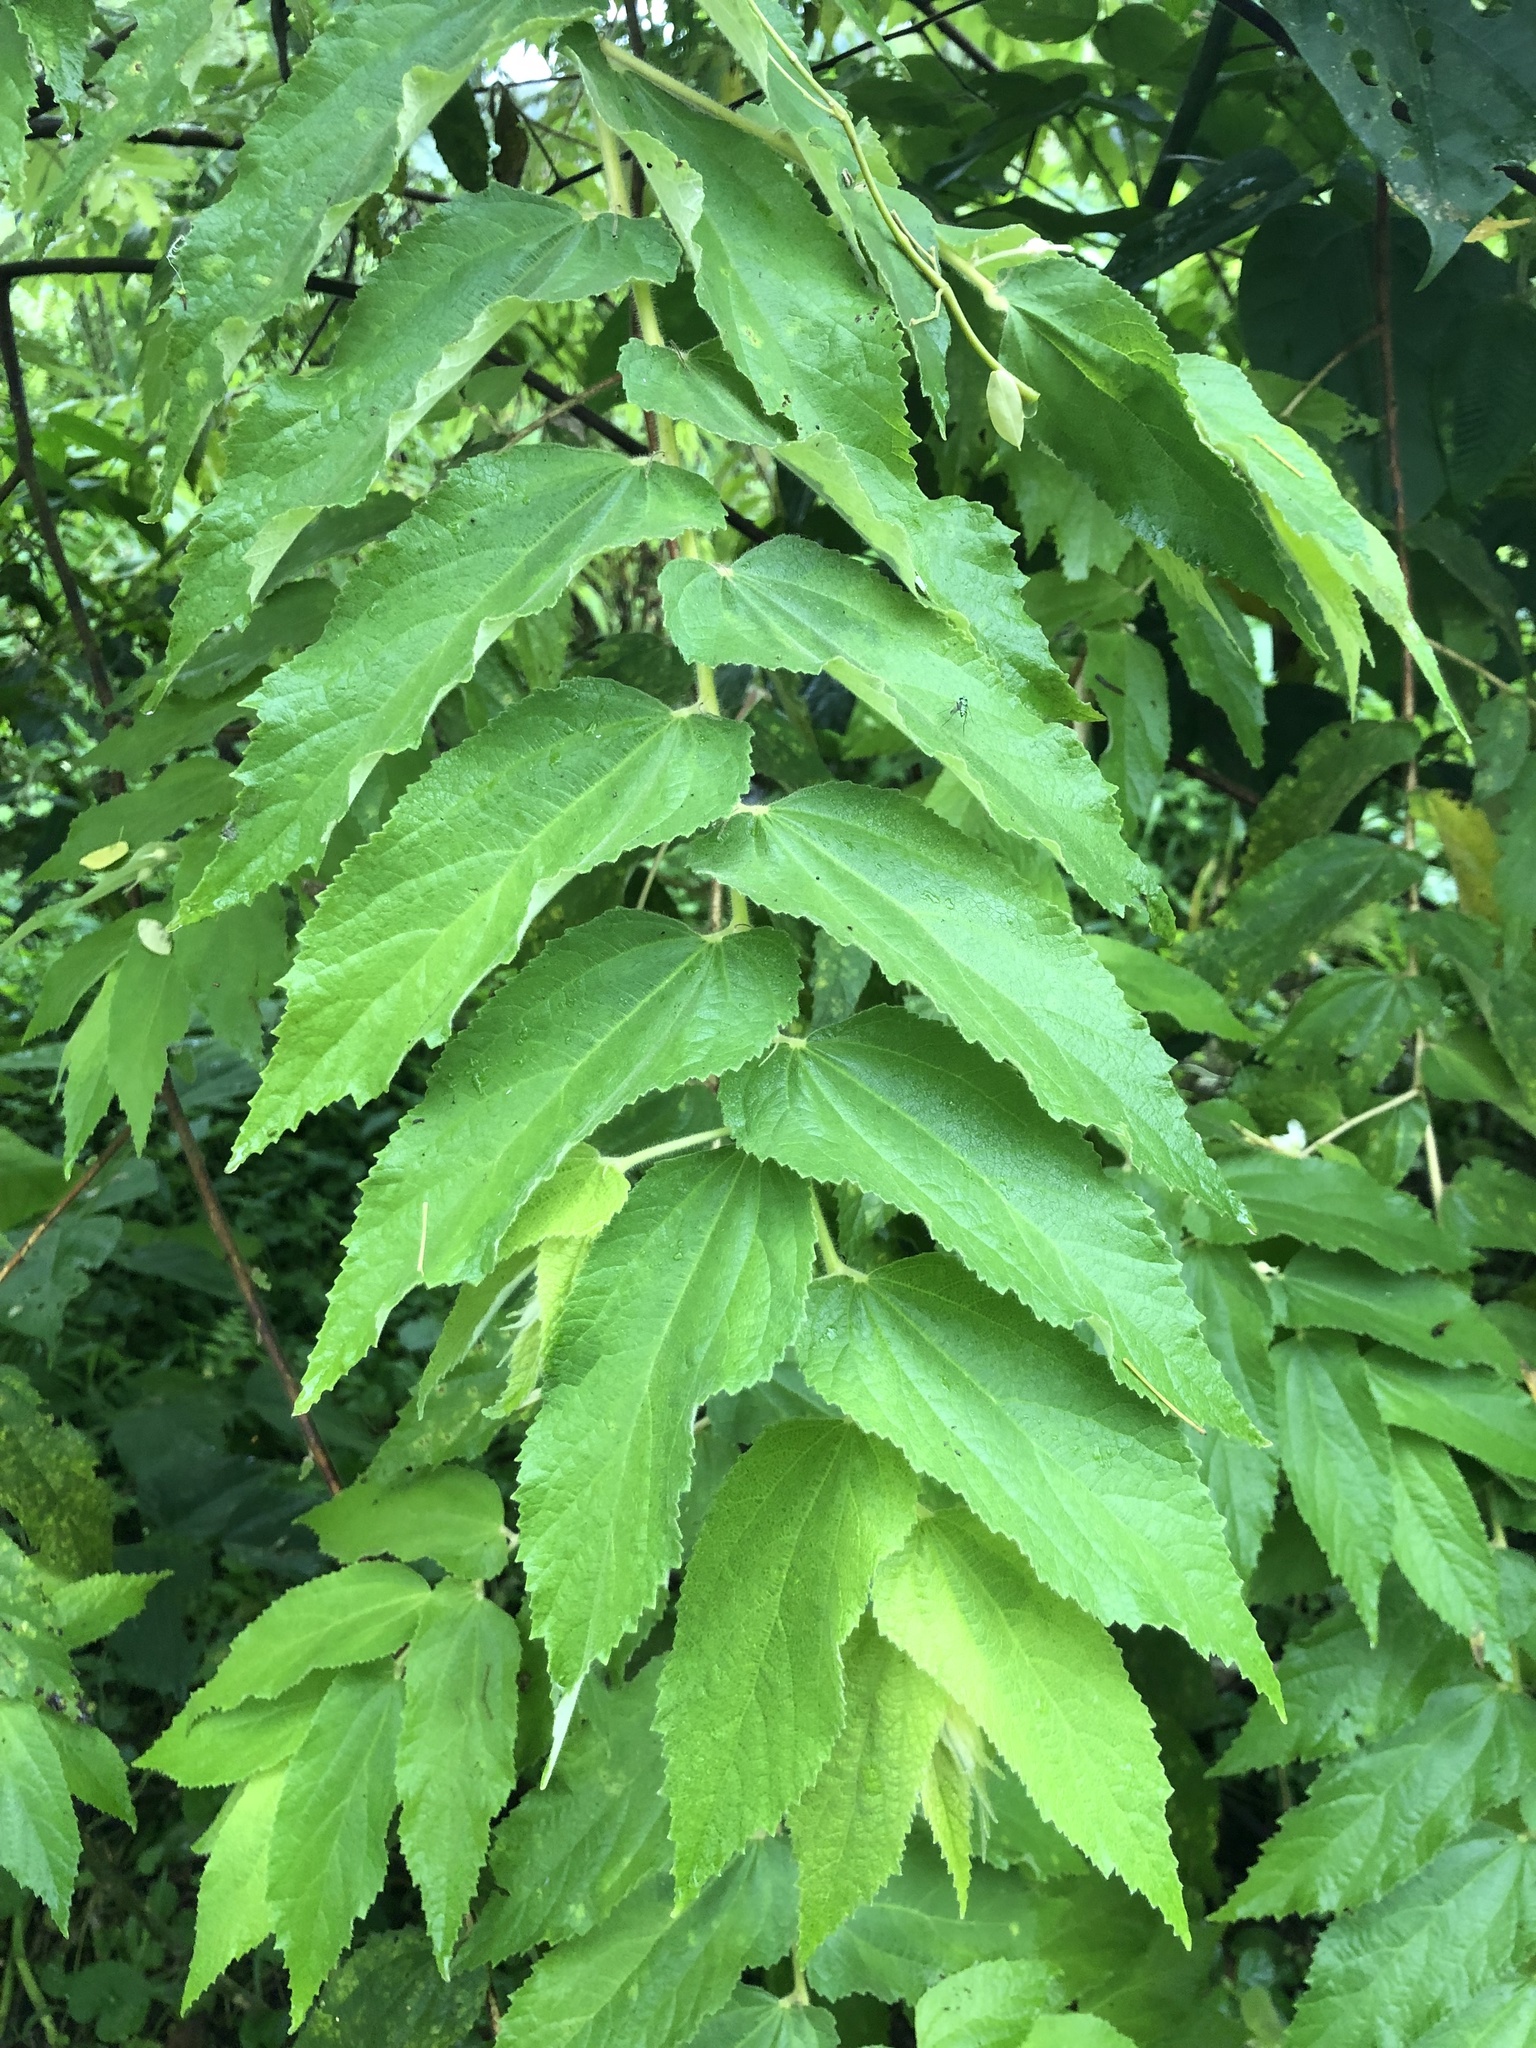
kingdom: Plantae
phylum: Tracheophyta
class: Magnoliopsida
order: Malvales
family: Muntingiaceae
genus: Muntingia
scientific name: Muntingia calabura
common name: Strawberrytree
